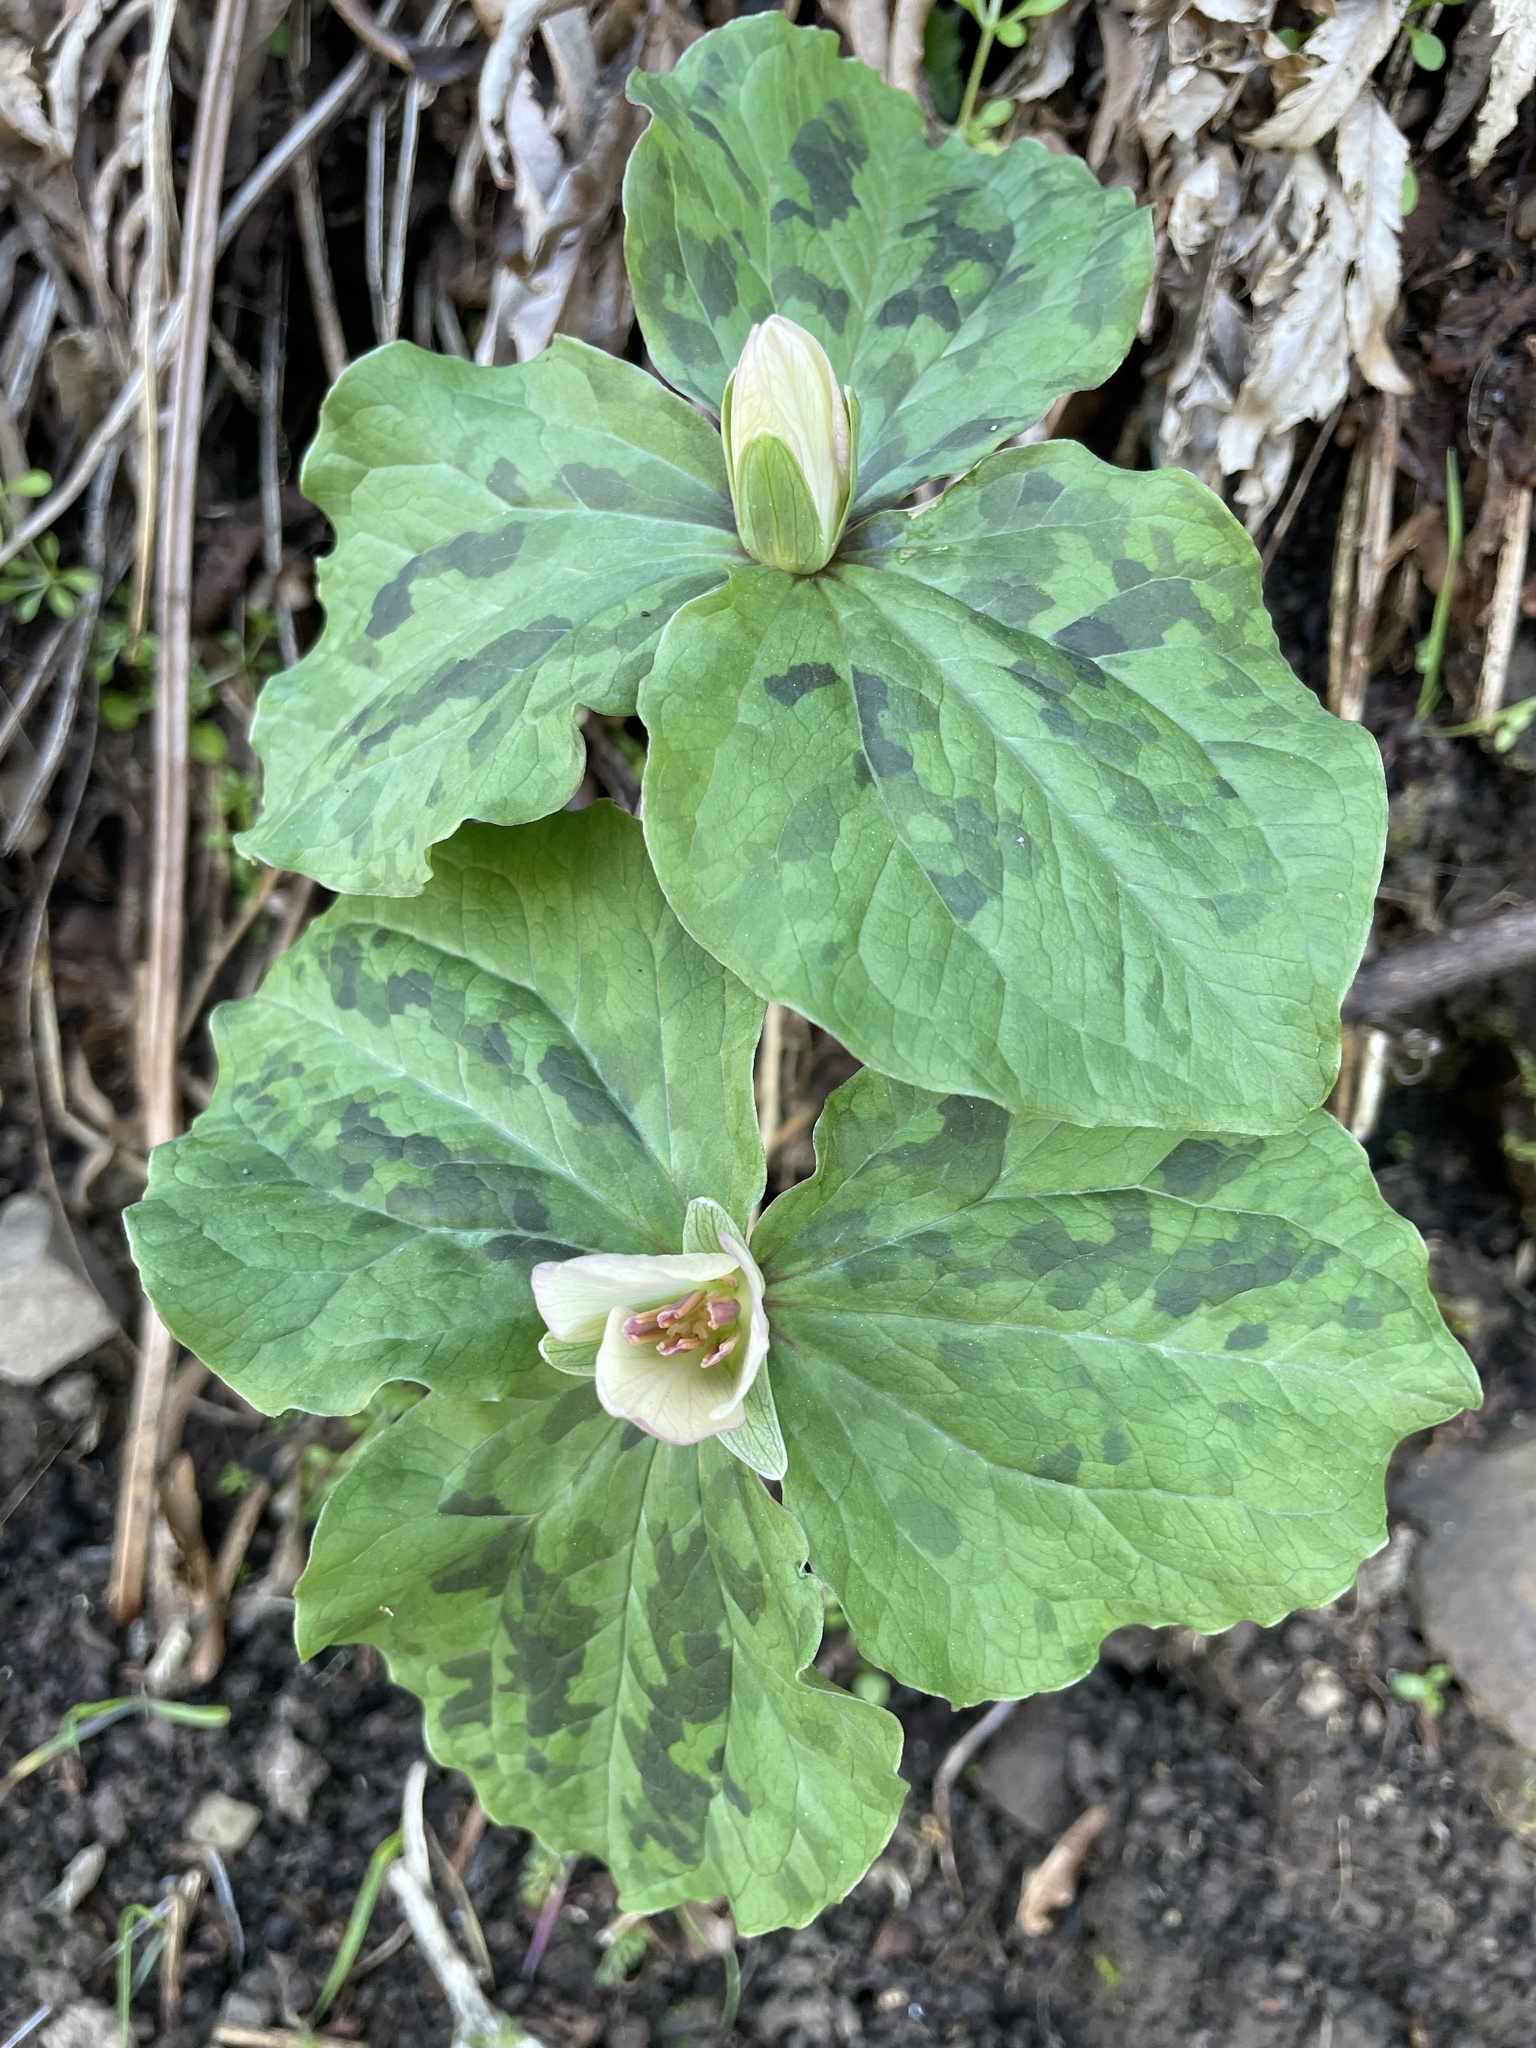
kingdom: Plantae
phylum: Tracheophyta
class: Liliopsida
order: Liliales
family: Melanthiaceae
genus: Trillium
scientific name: Trillium chloropetalum
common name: Giant trillium
